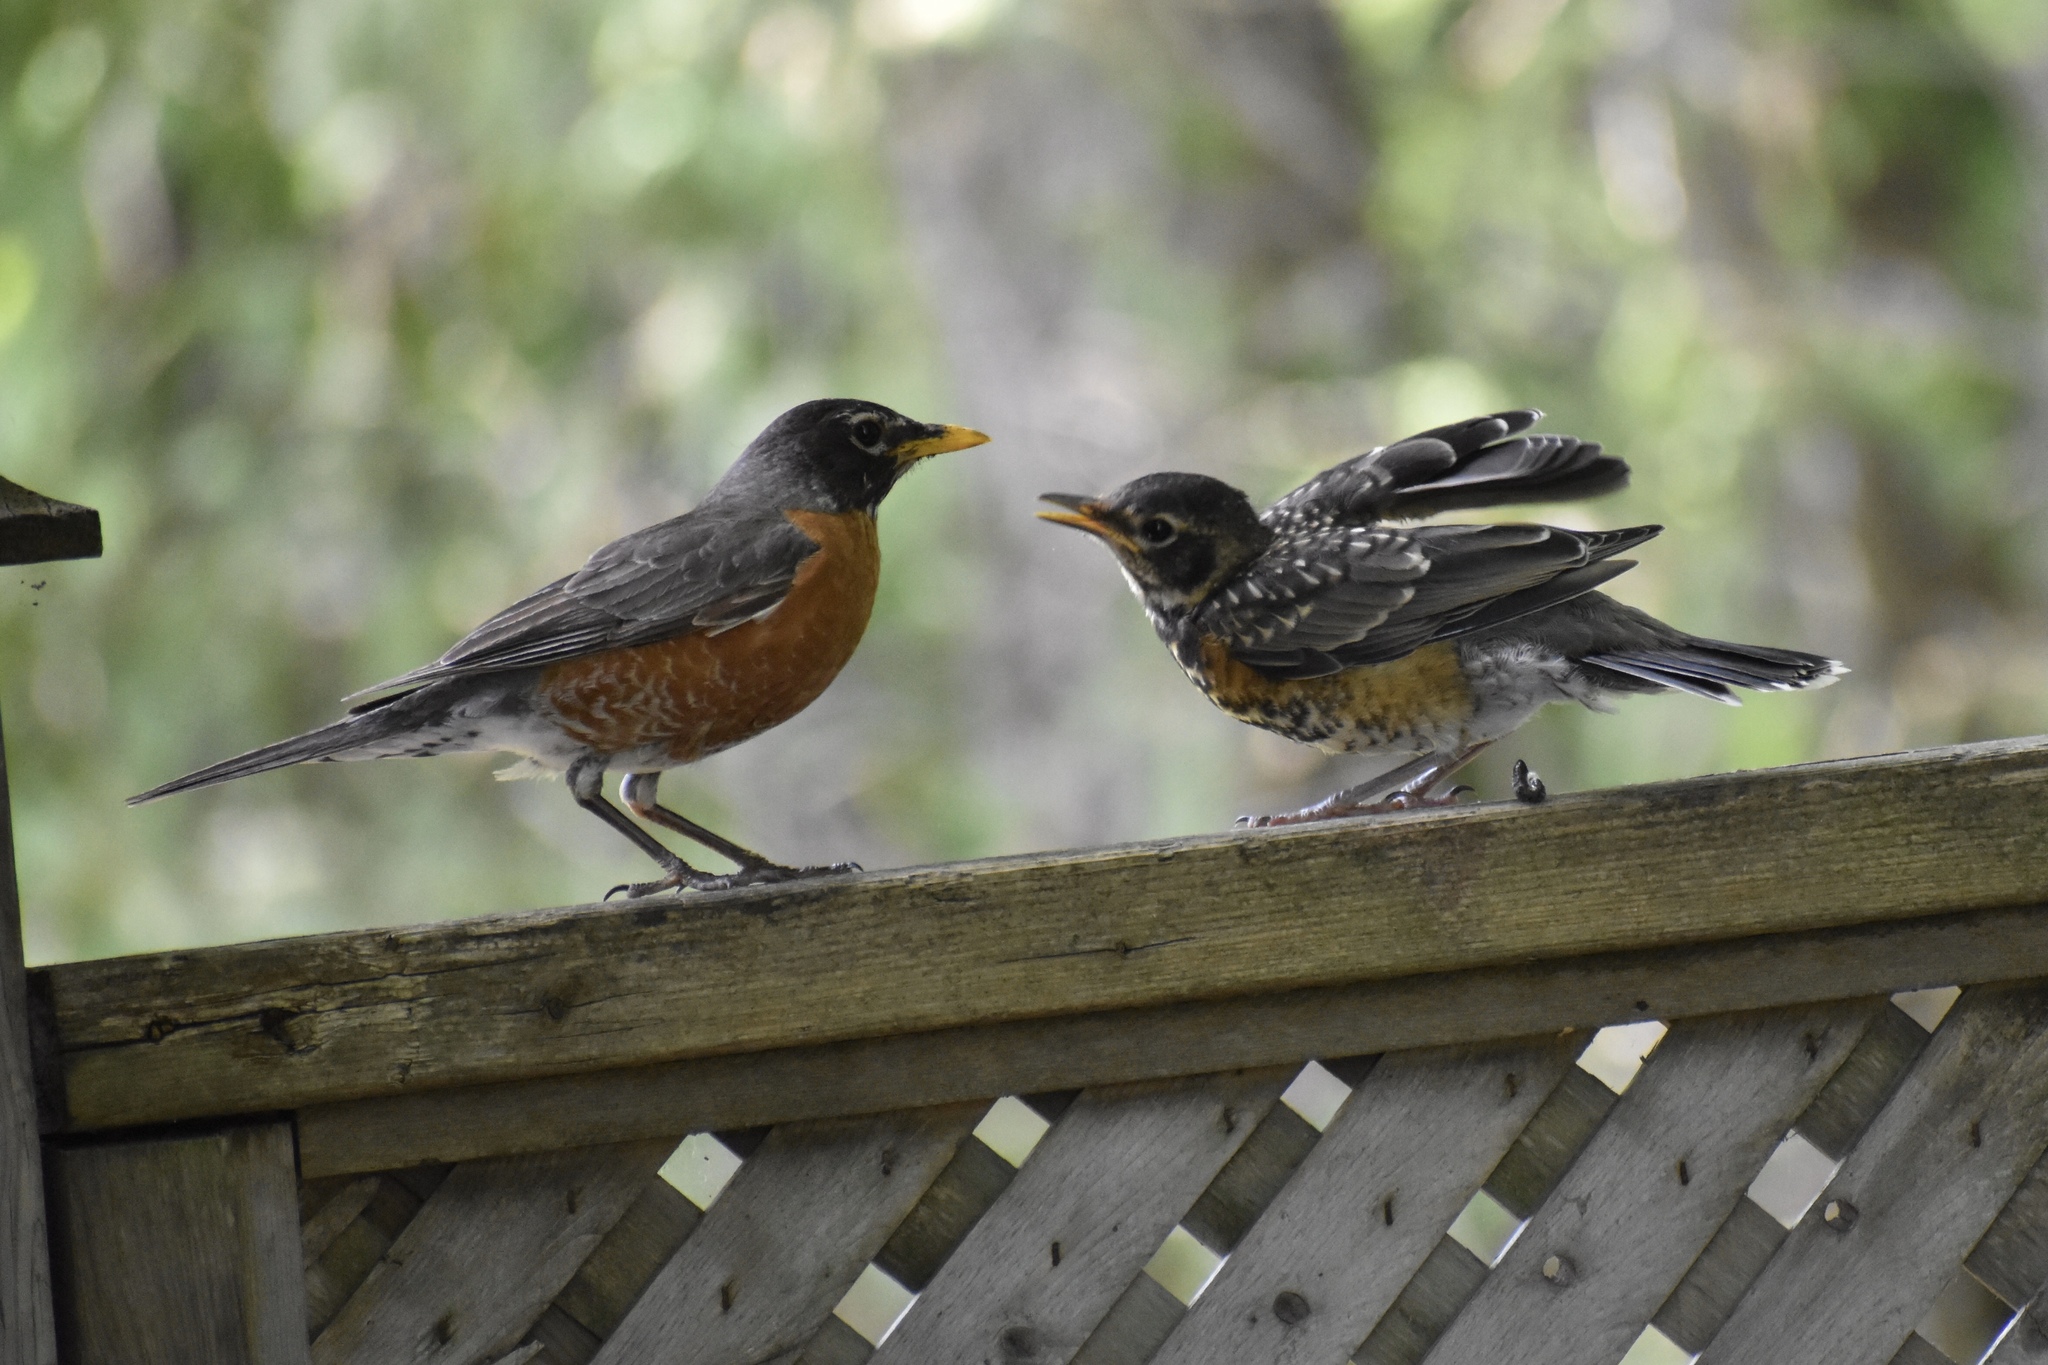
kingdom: Animalia
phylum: Chordata
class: Aves
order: Passeriformes
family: Turdidae
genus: Turdus
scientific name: Turdus migratorius
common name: American robin
